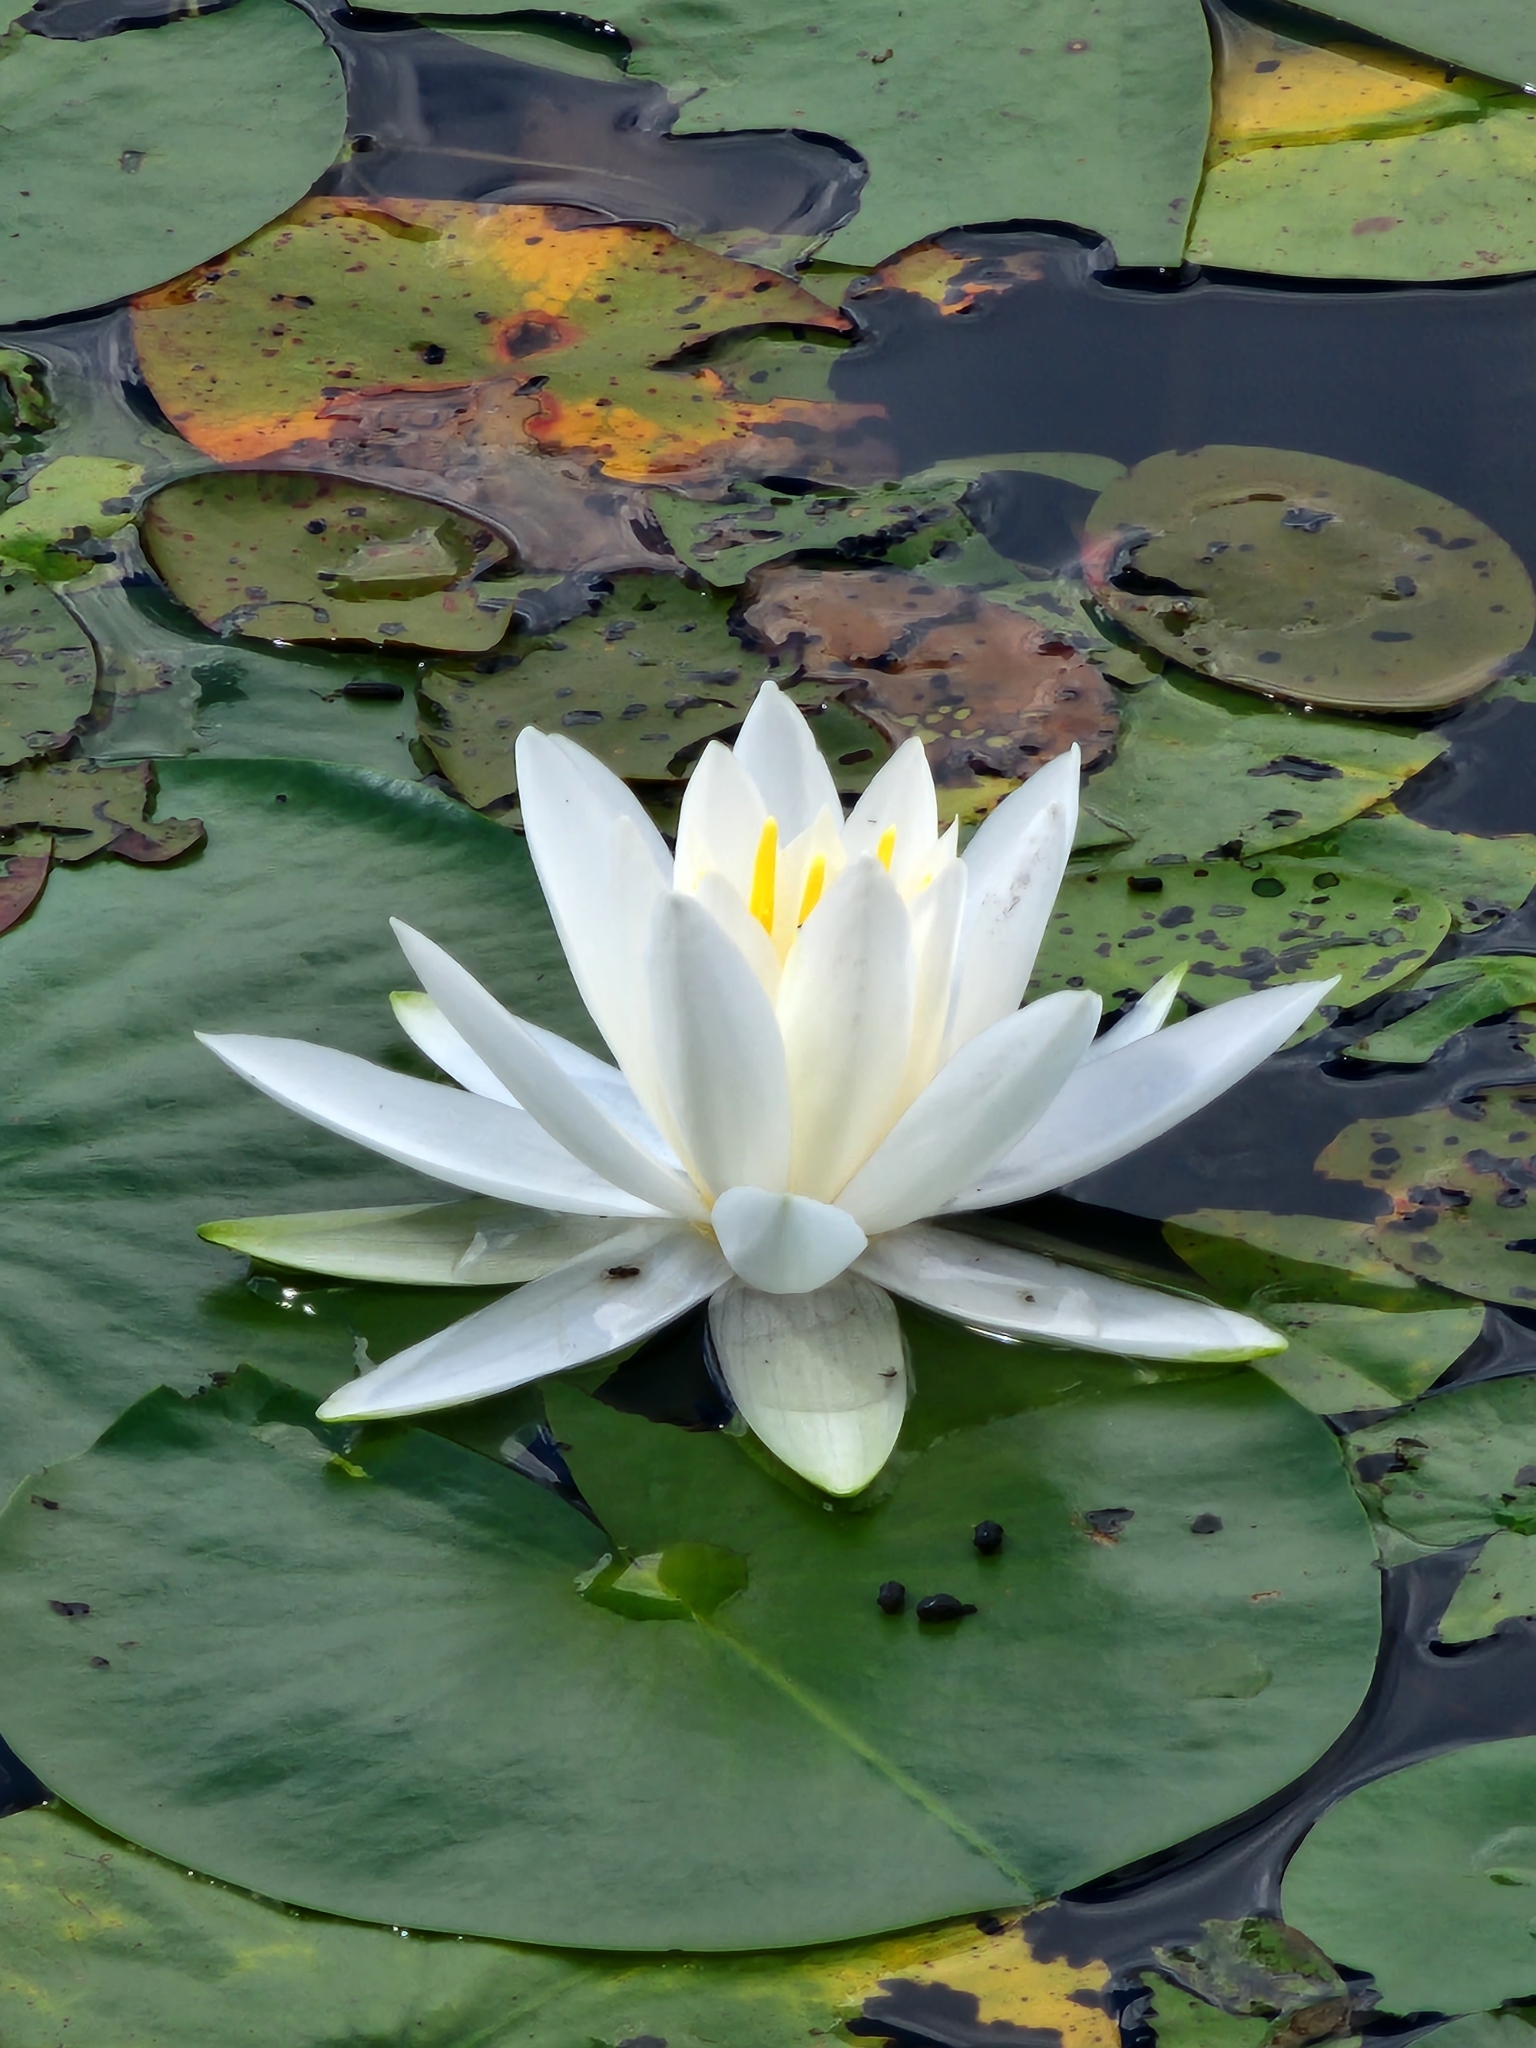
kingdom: Plantae
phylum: Tracheophyta
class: Magnoliopsida
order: Nymphaeales
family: Nymphaeaceae
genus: Nymphaea
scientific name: Nymphaea odorata
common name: Fragrant water-lily
